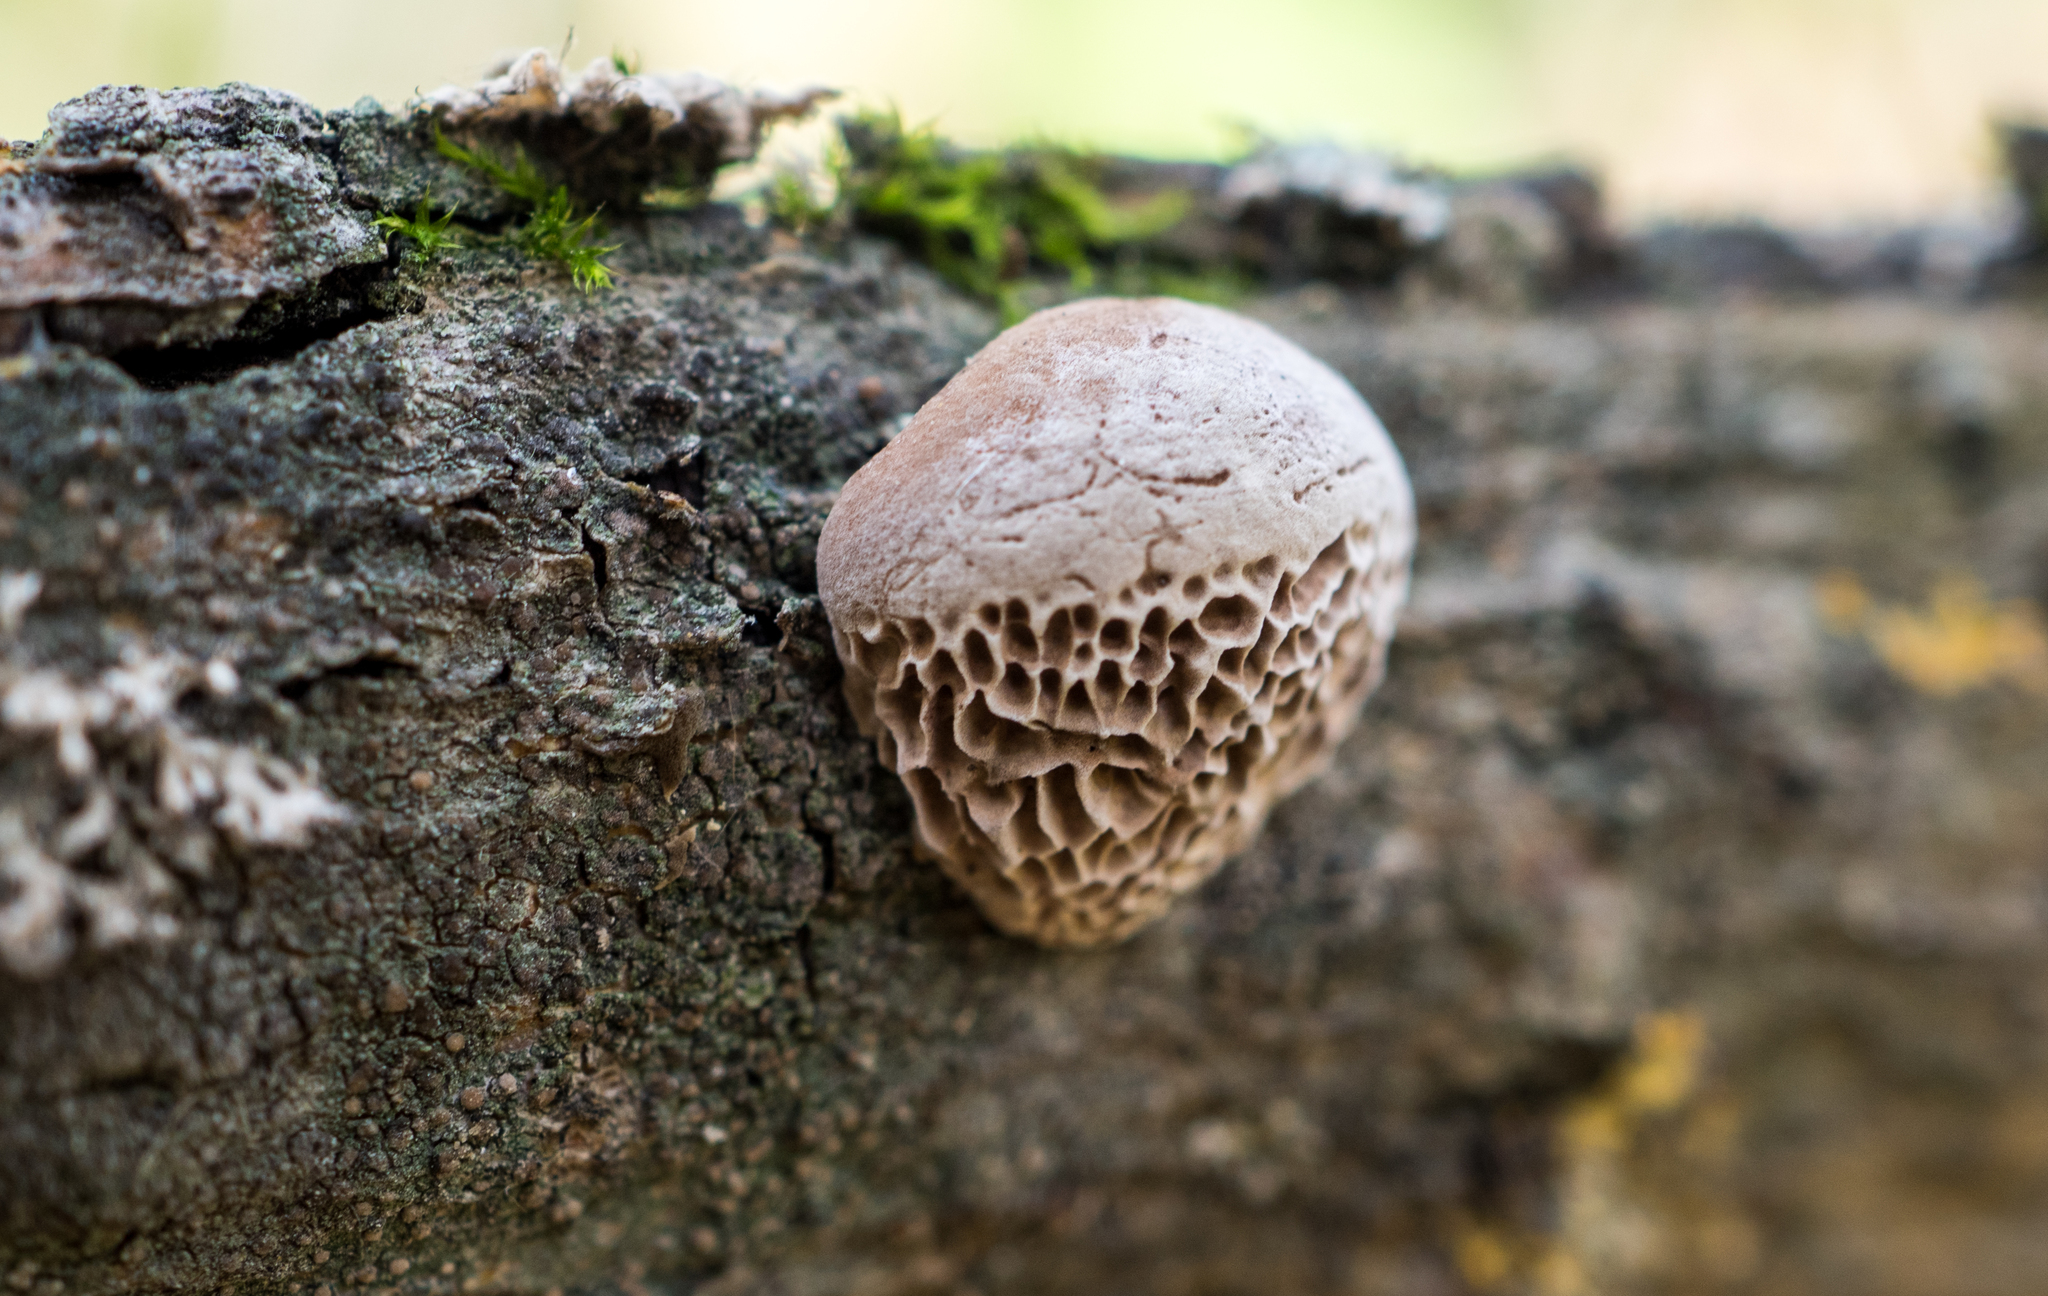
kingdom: Fungi
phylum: Basidiomycota
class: Agaricomycetes
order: Polyporales
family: Fomitopsidaceae
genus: Fomitopsis
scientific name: Fomitopsis
